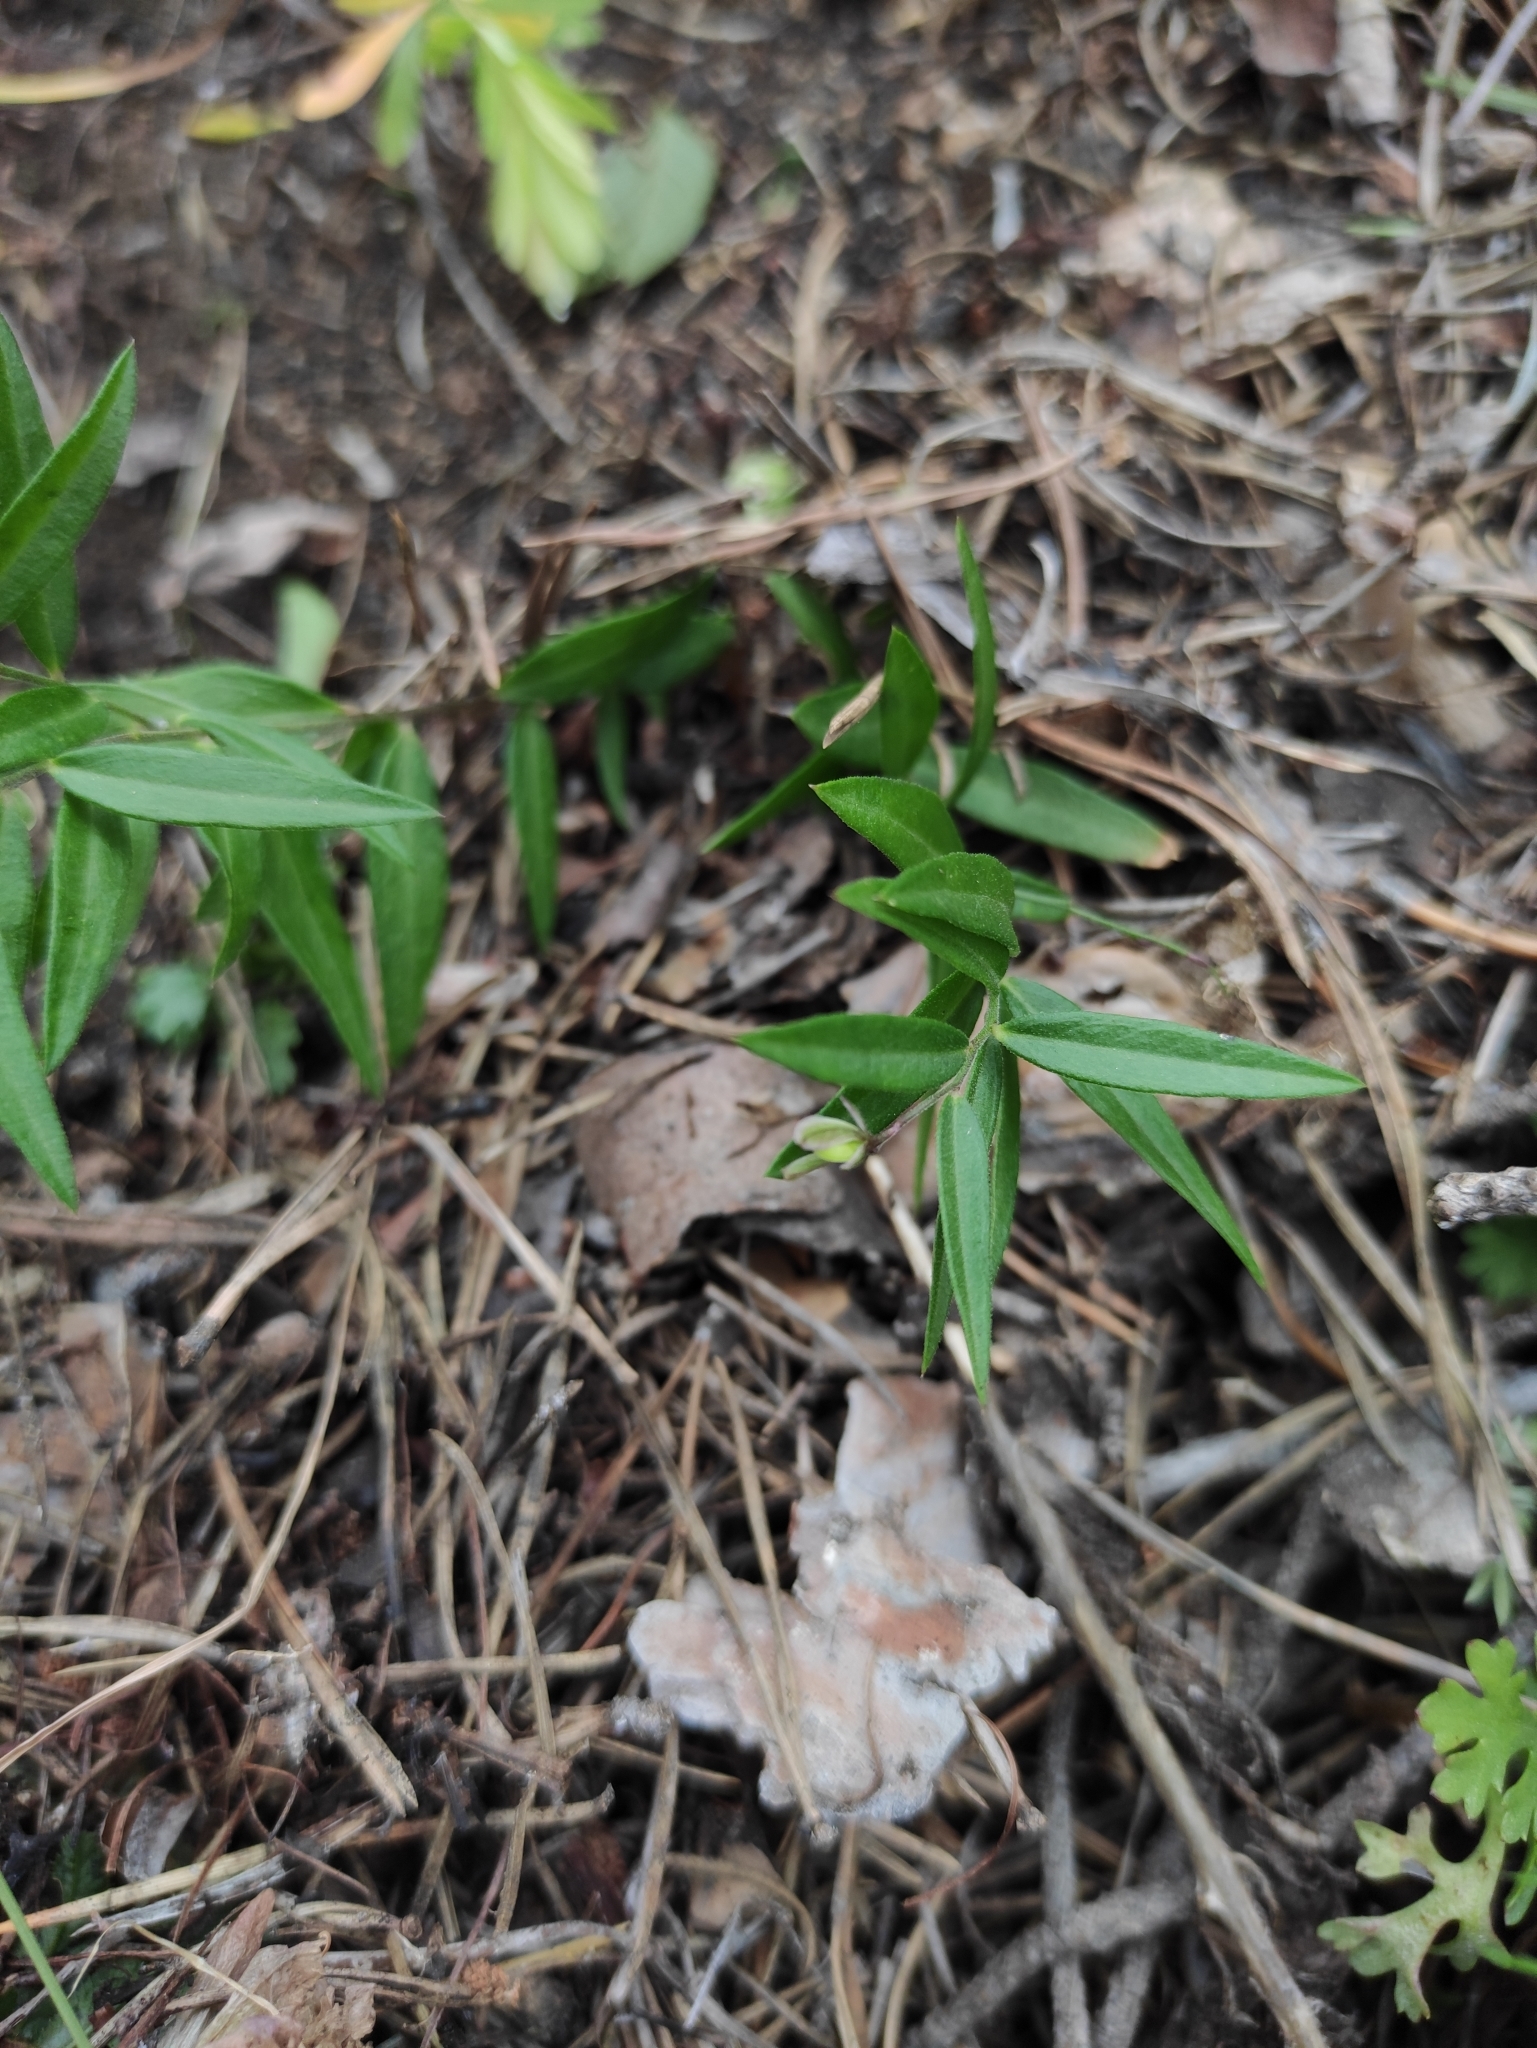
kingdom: Plantae
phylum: Tracheophyta
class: Magnoliopsida
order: Fabales
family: Polygalaceae
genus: Polygala
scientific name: Polygala sibirica
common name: Siberian polygala
